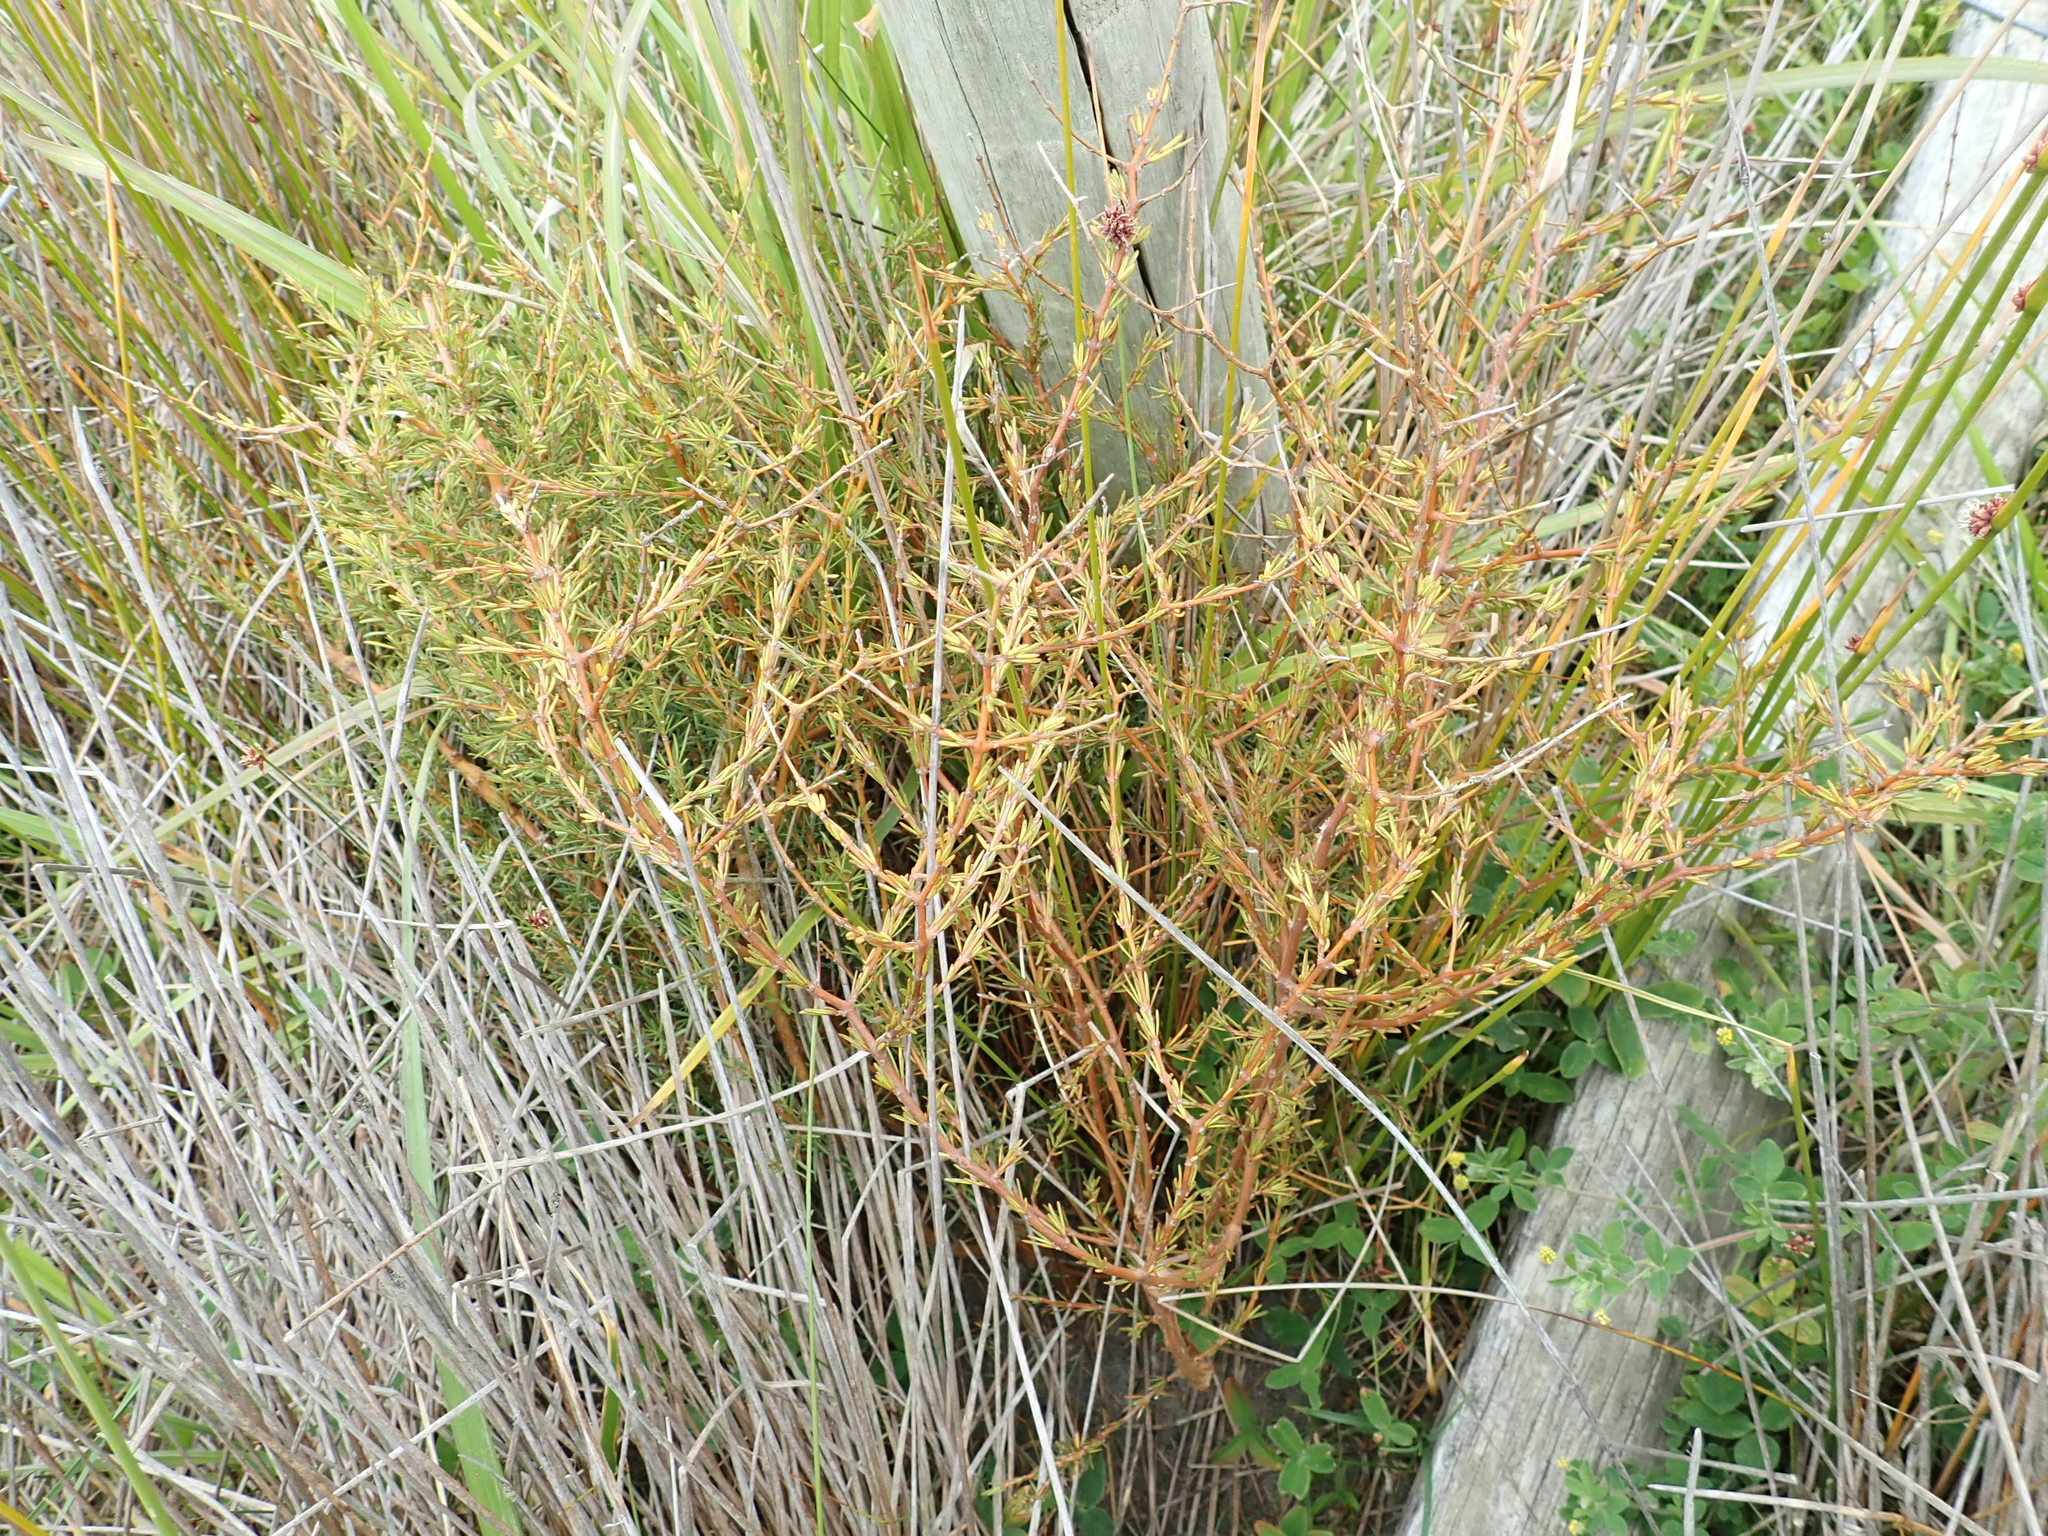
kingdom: Plantae
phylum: Tracheophyta
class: Magnoliopsida
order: Gentianales
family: Rubiaceae
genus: Coprosma
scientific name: Coprosma acerosa
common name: Sand coprosma
